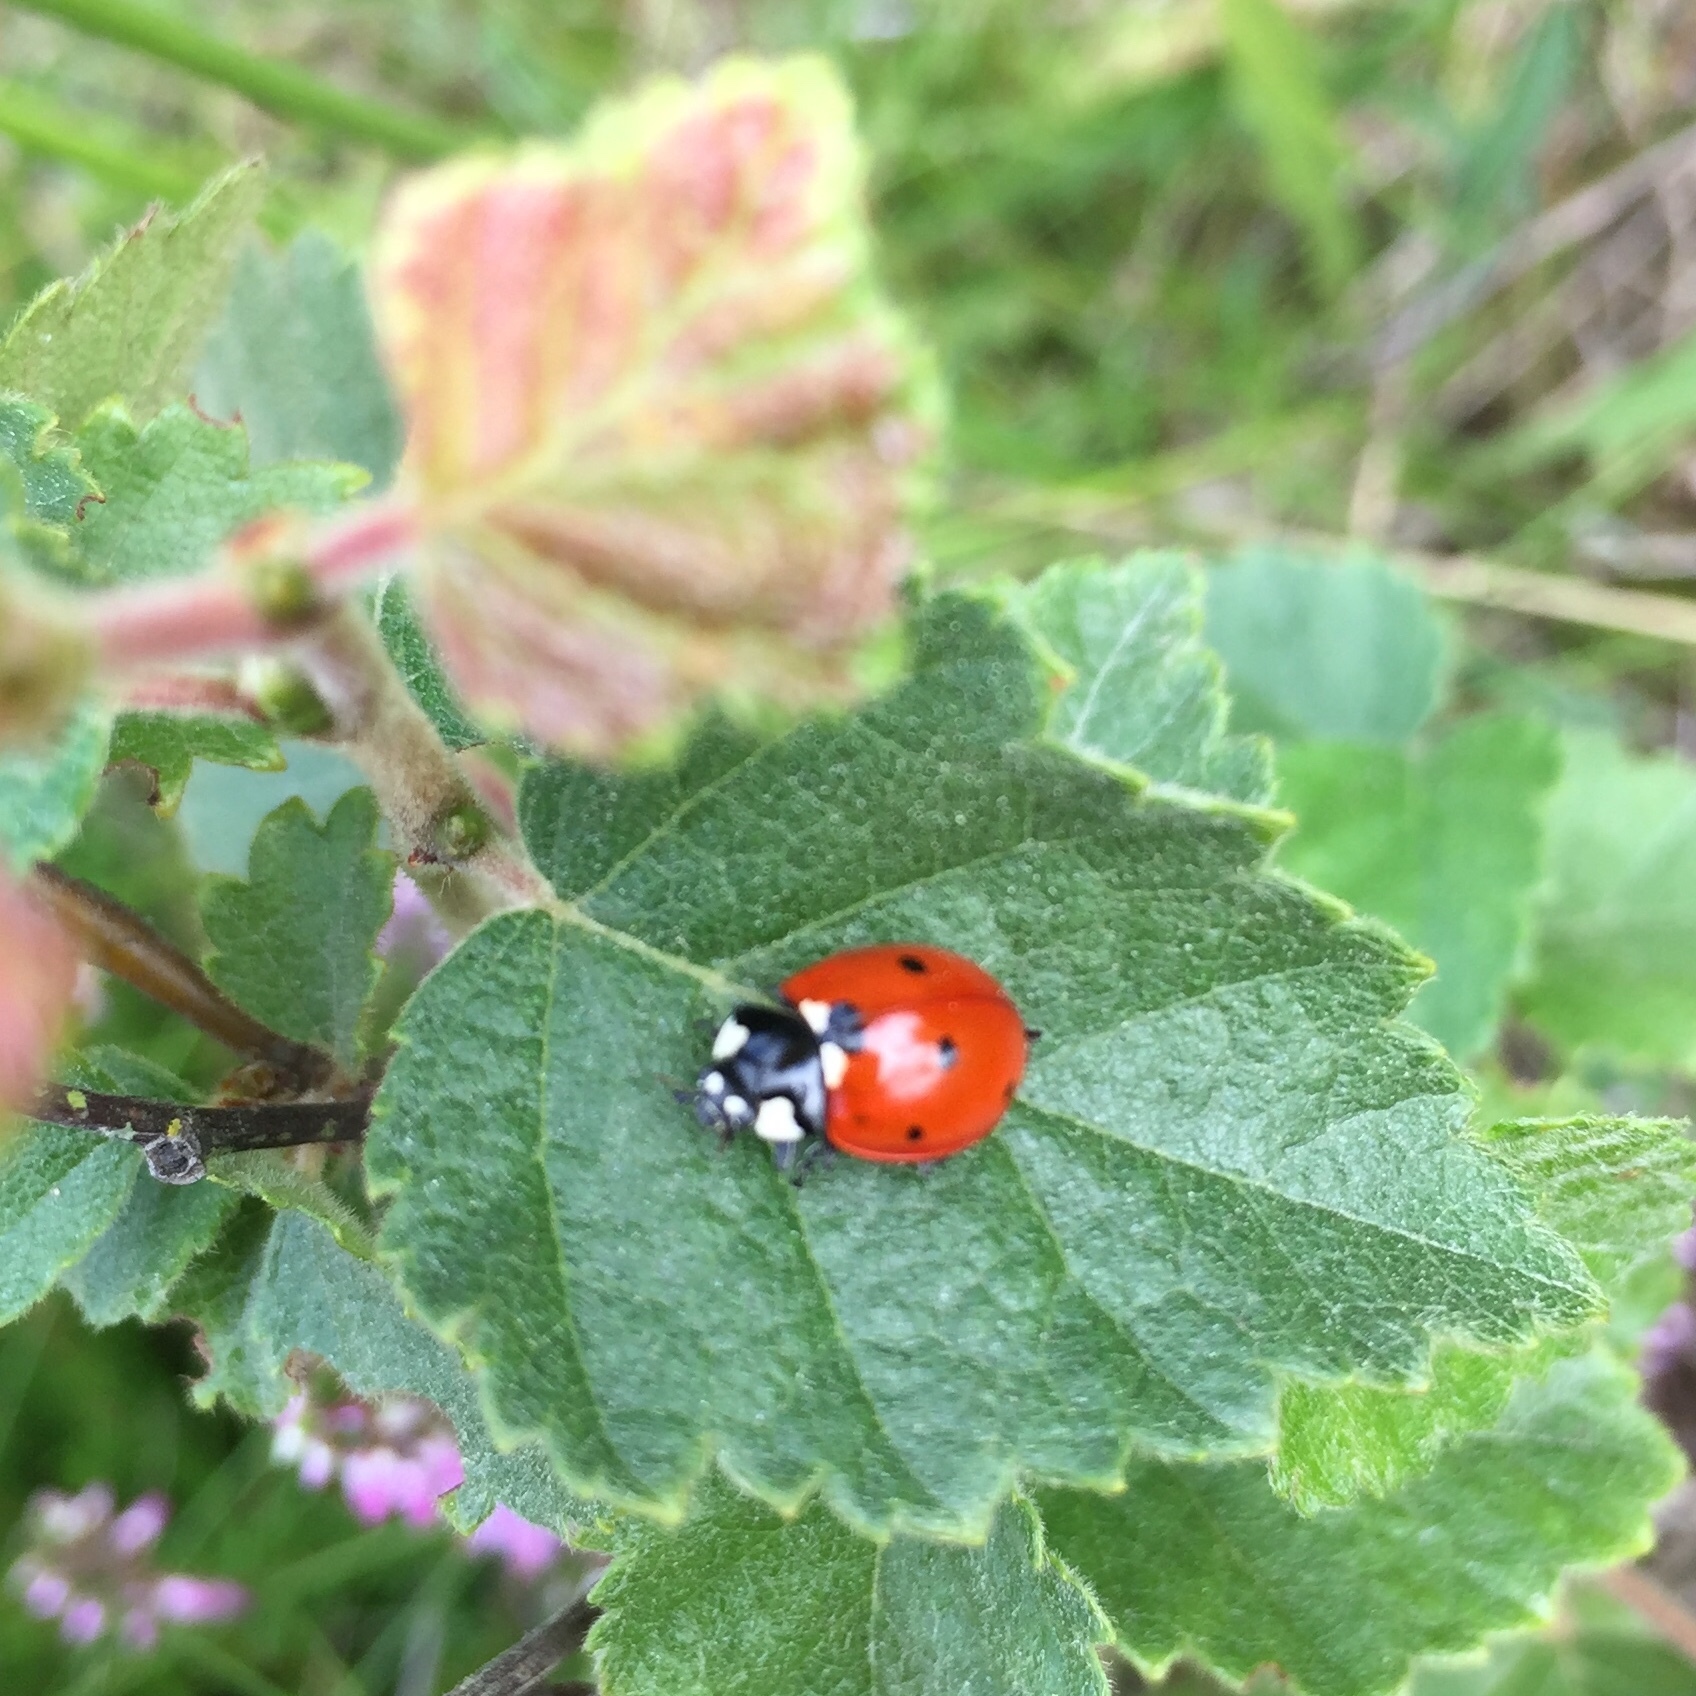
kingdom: Animalia
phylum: Arthropoda
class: Insecta
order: Coleoptera
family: Coccinellidae
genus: Coccinella
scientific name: Coccinella septempunctata
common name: Sevenspotted lady beetle
